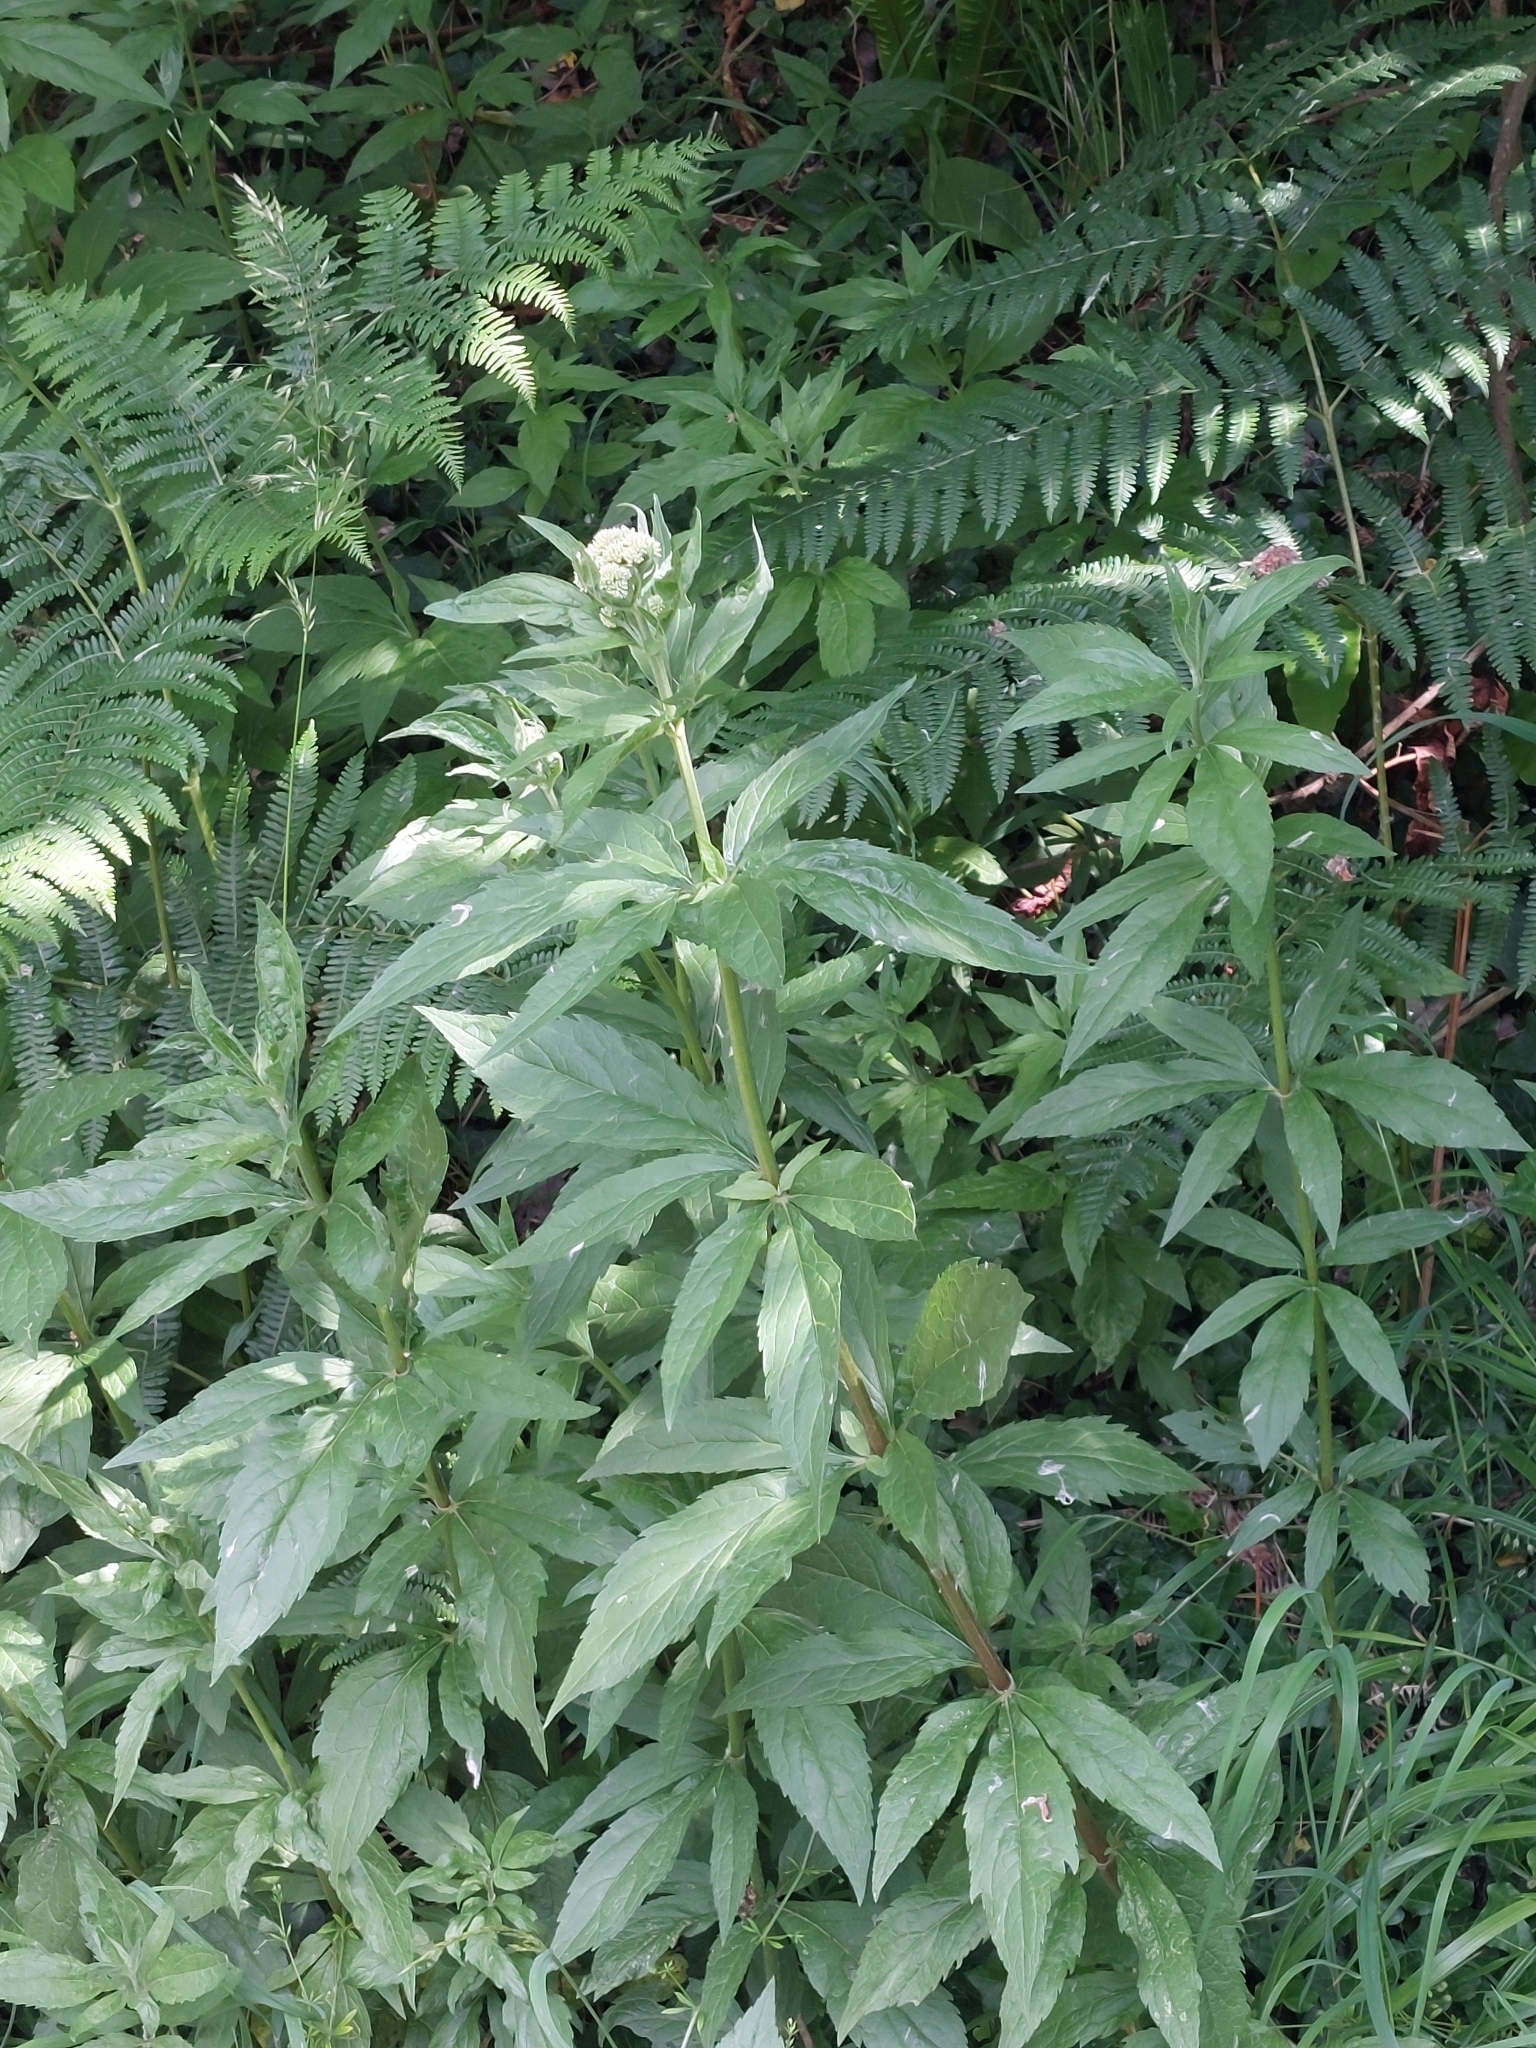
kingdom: Plantae
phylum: Tracheophyta
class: Magnoliopsida
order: Asterales
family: Asteraceae
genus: Eupatorium
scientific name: Eupatorium cannabinum
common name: Hemp-agrimony
